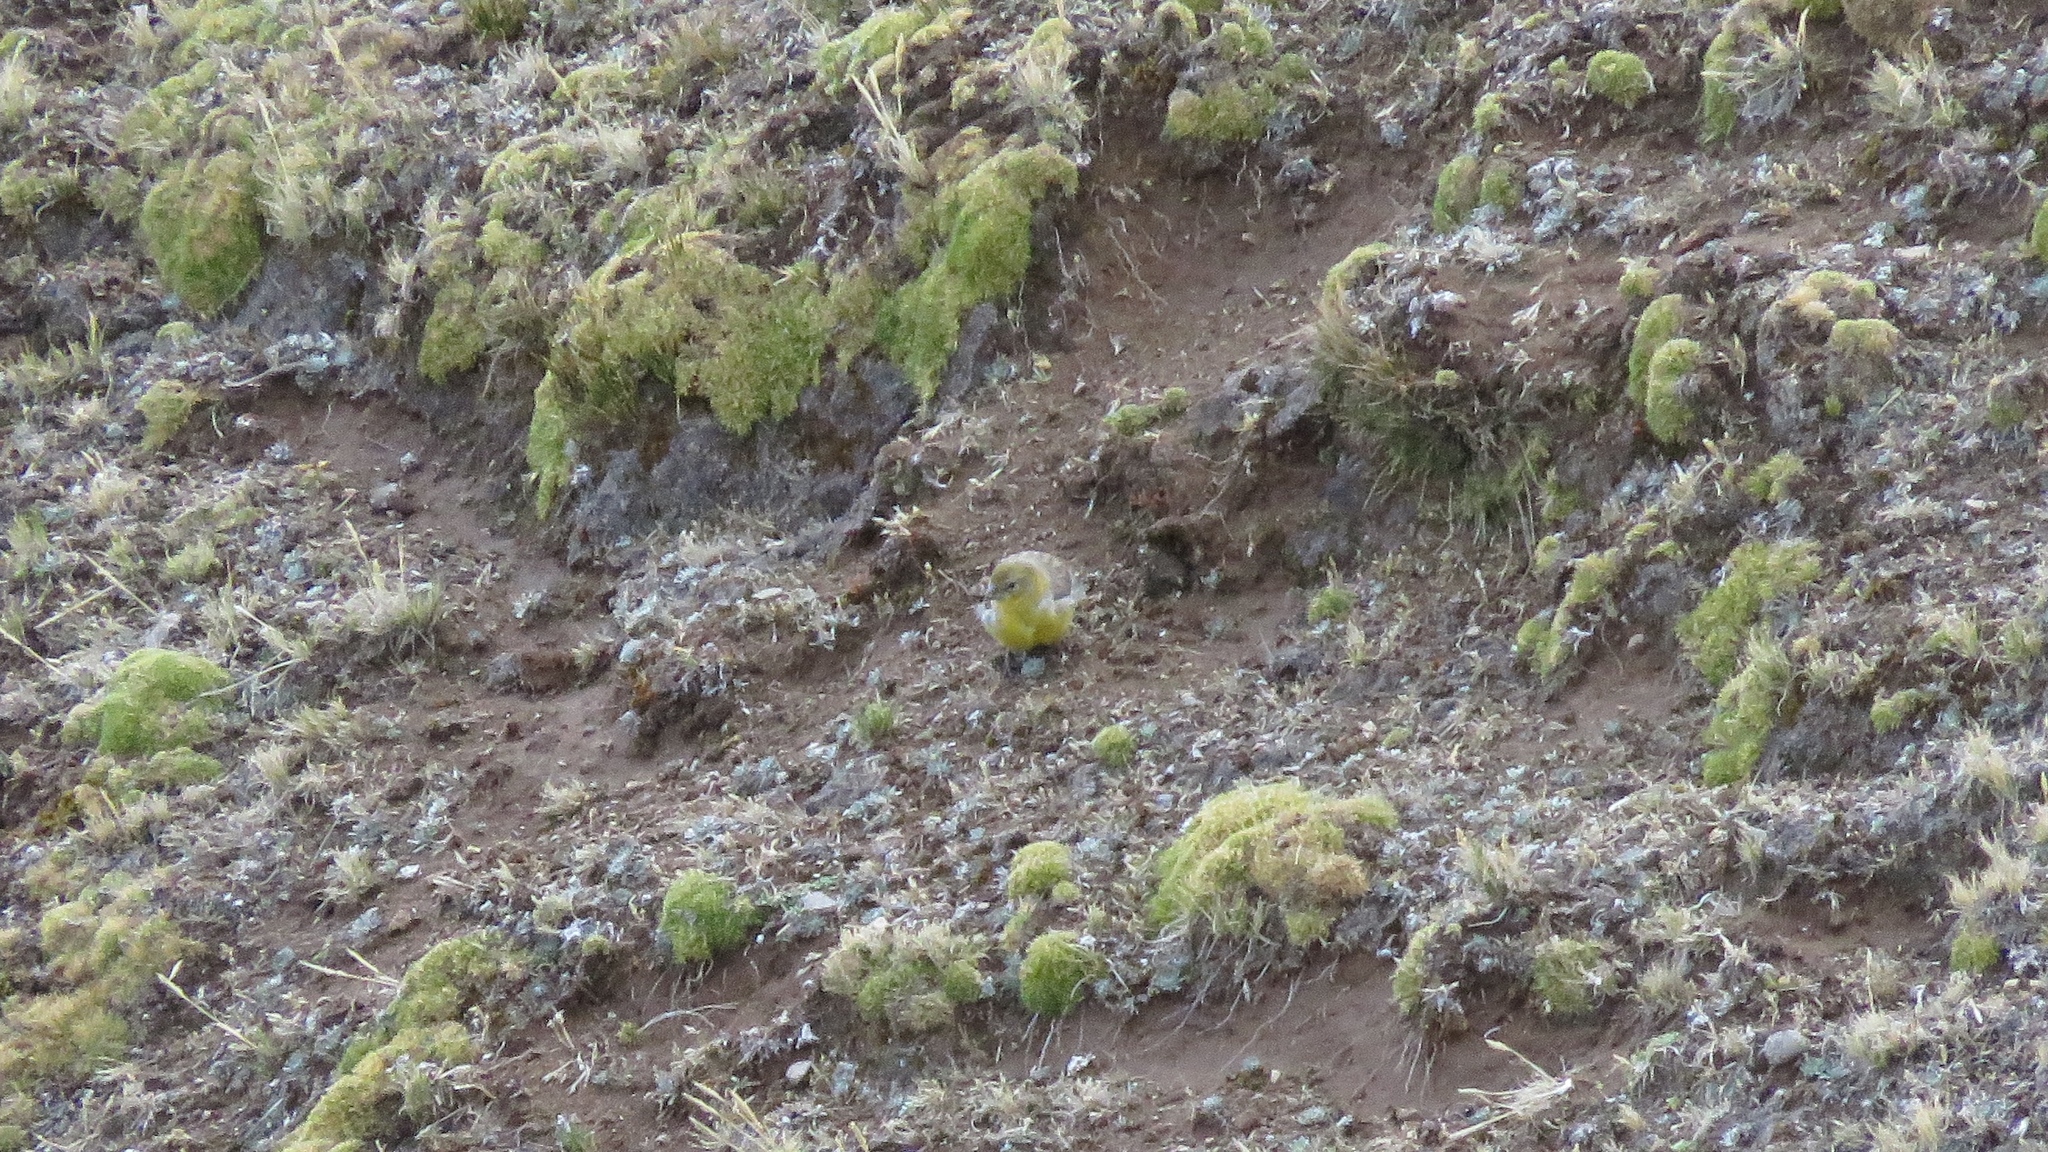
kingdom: Animalia
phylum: Chordata
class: Aves
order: Passeriformes
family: Thraupidae
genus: Sicalis
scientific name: Sicalis uropigyalis
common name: Bright-rumped yellow finch
